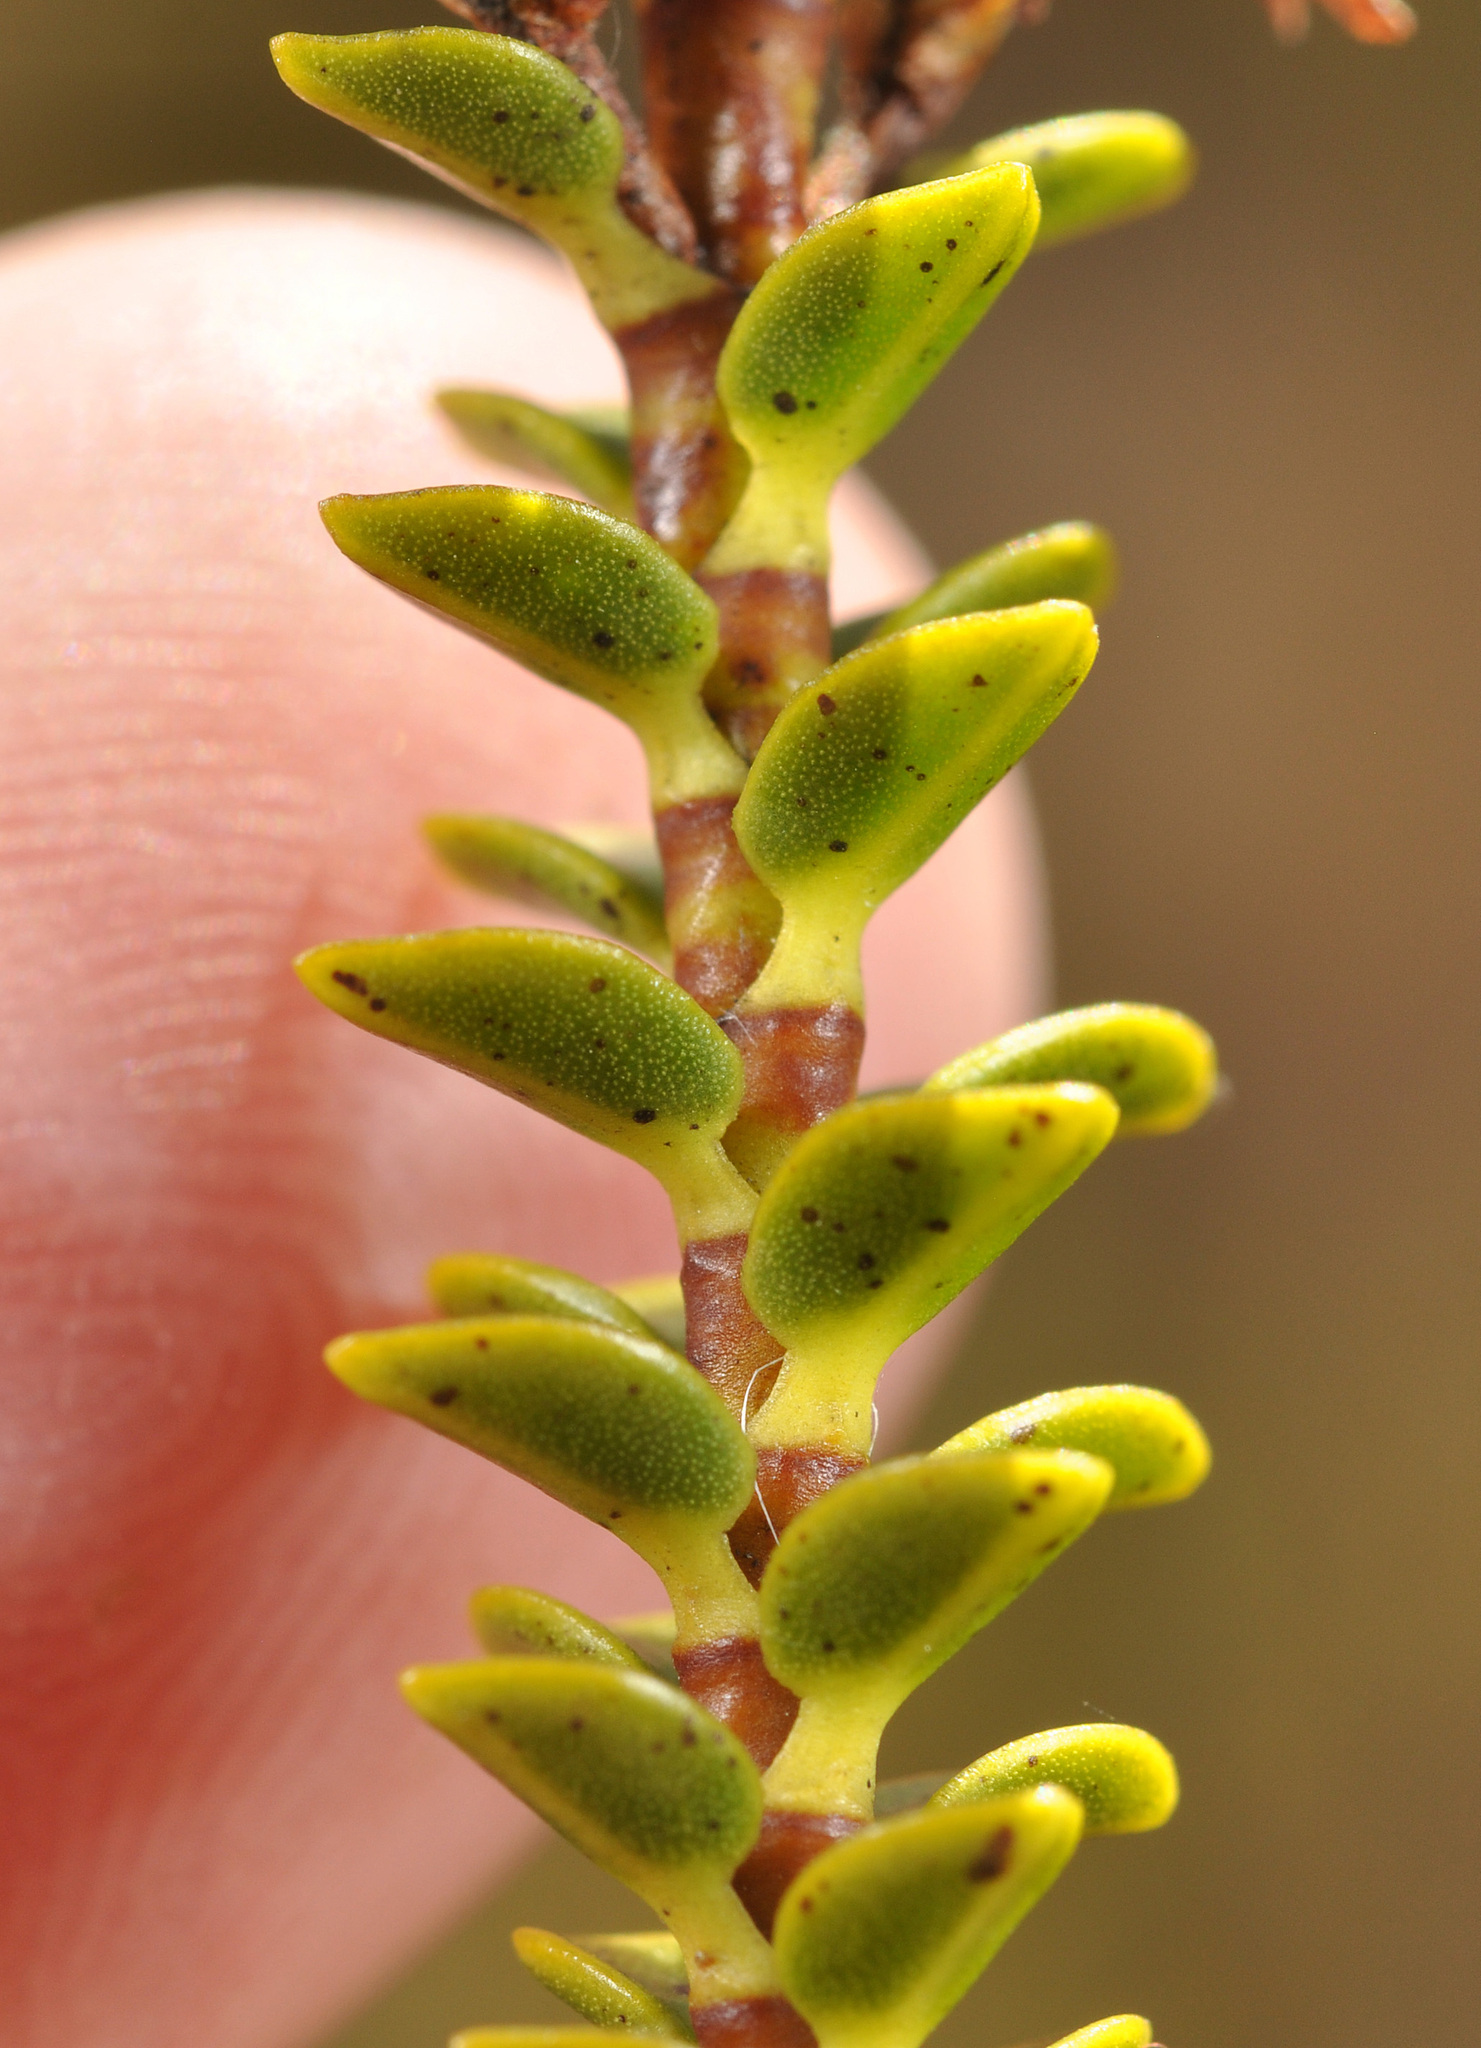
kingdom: Plantae
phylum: Tracheophyta
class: Magnoliopsida
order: Lamiales
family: Plantaginaceae
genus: Veronica
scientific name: Veronica pauciramosa
